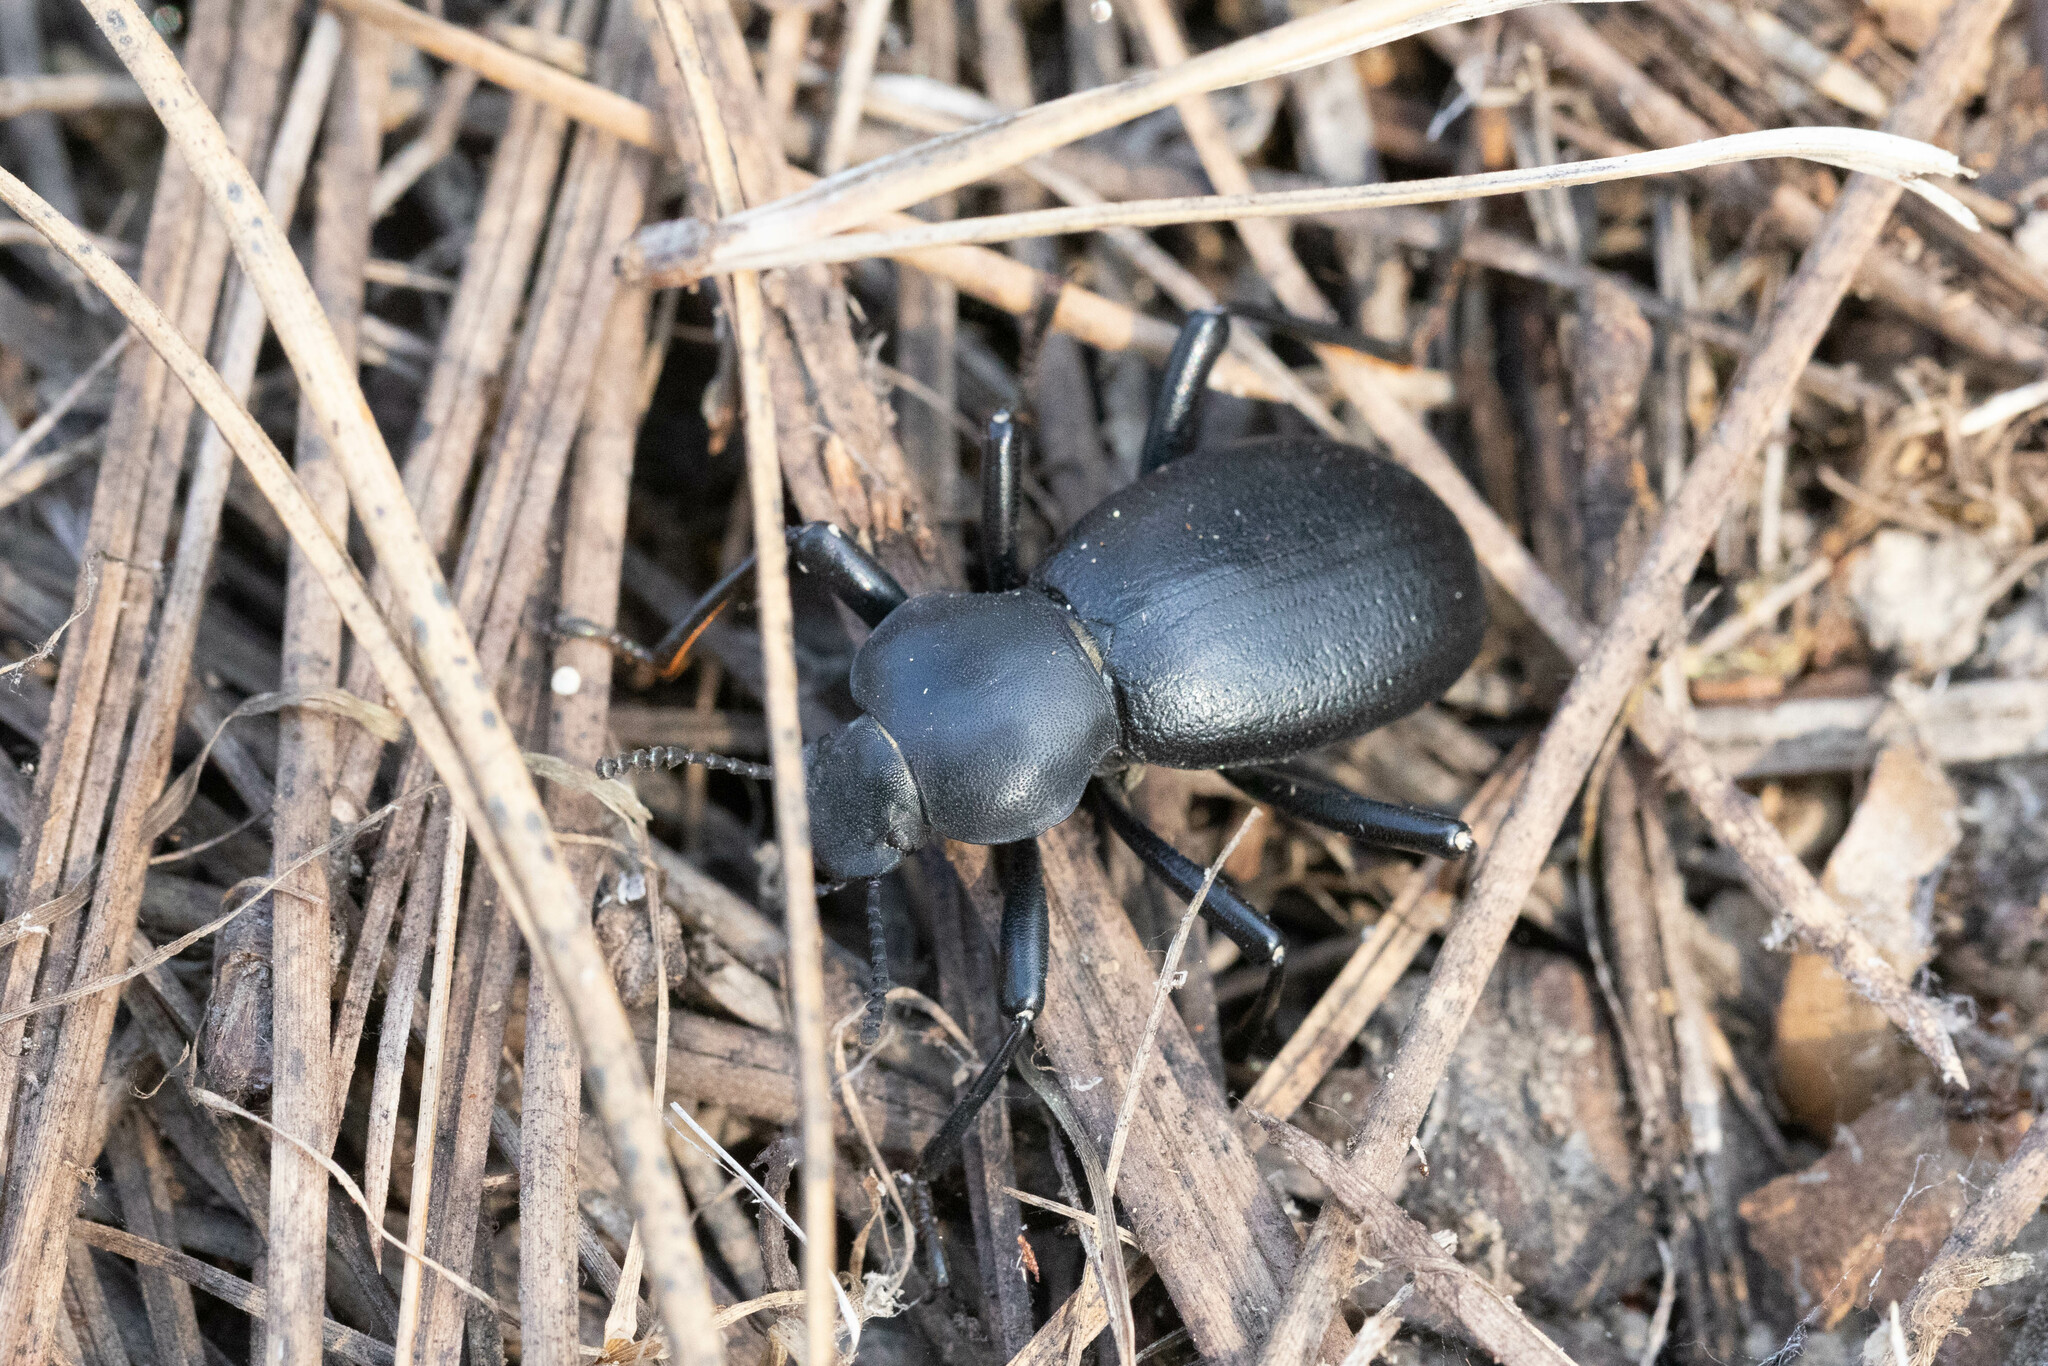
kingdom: Animalia
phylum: Arthropoda
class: Insecta
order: Coleoptera
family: Tenebrionidae
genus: Coelocnemis
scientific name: Coelocnemis dilaticollis
